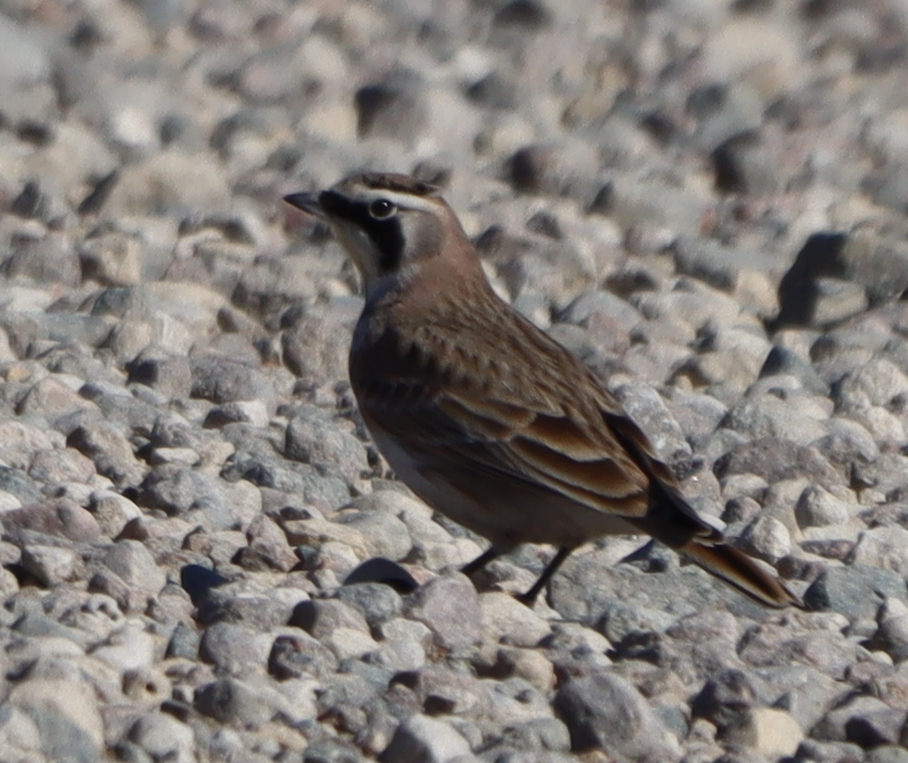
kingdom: Animalia
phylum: Chordata
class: Aves
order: Passeriformes
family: Alaudidae
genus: Eremophila
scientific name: Eremophila alpestris
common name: Horned lark
